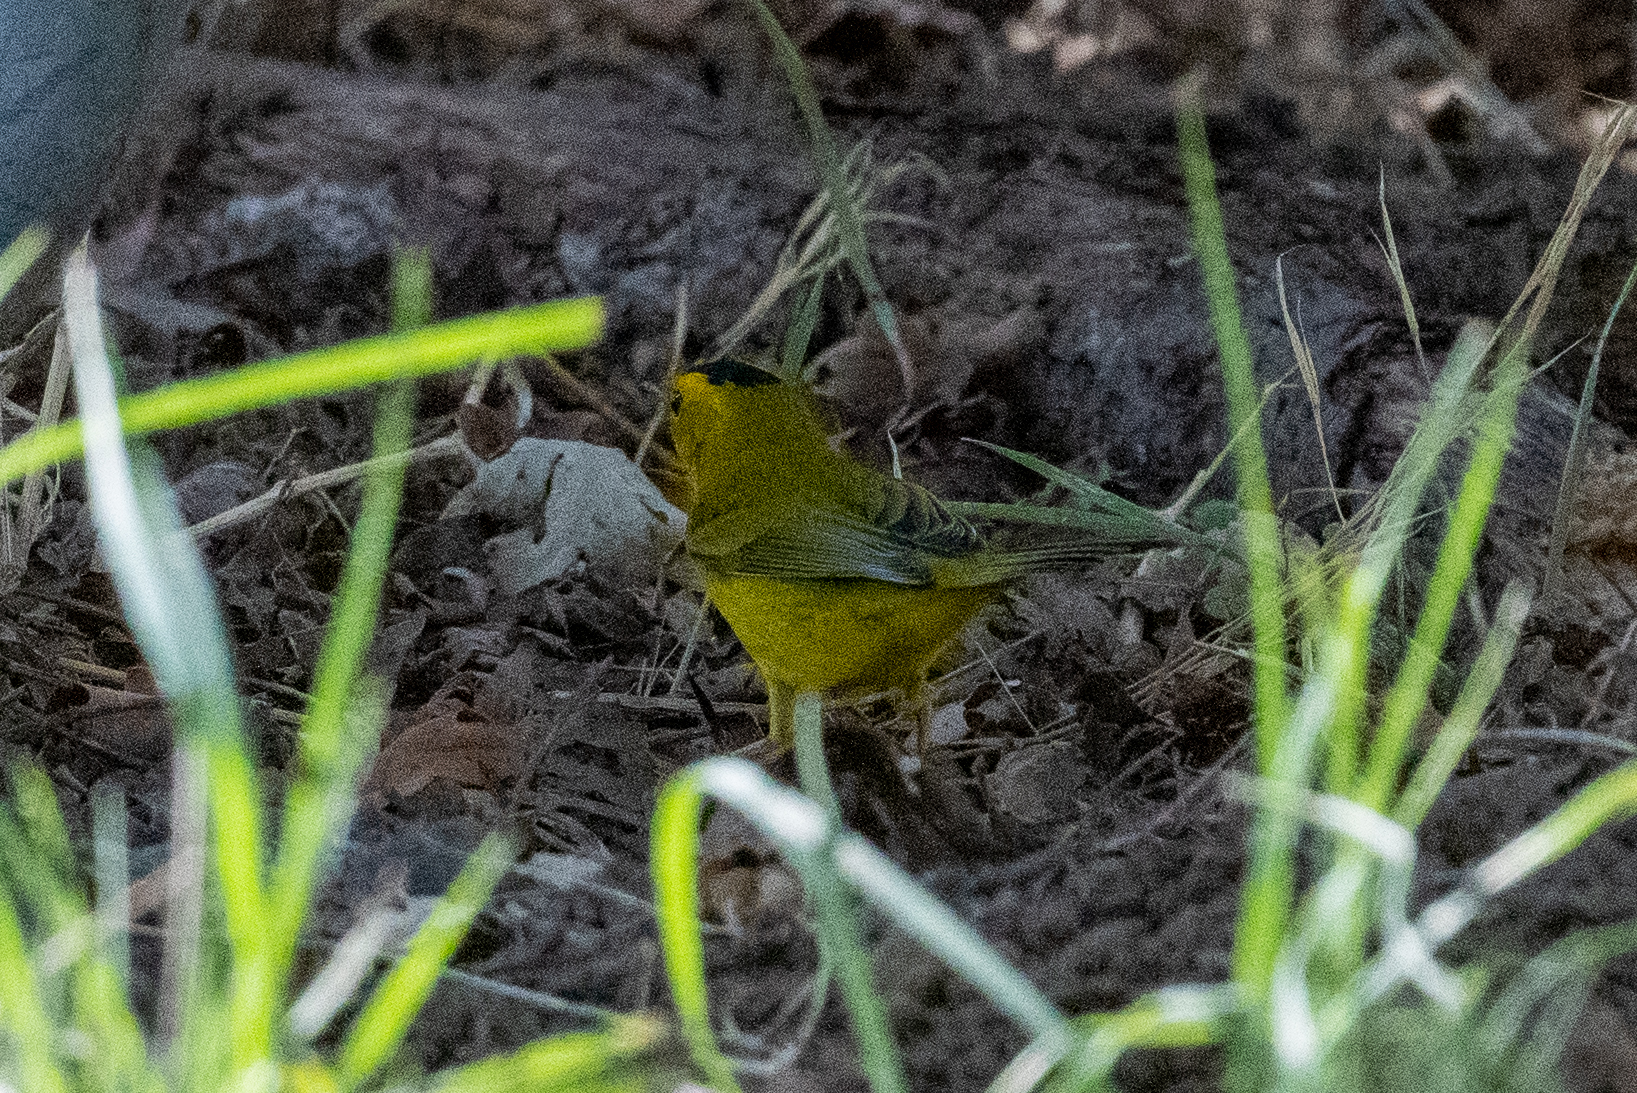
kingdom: Animalia
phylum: Chordata
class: Aves
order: Passeriformes
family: Parulidae
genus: Cardellina
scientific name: Cardellina pusilla
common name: Wilson's warbler
